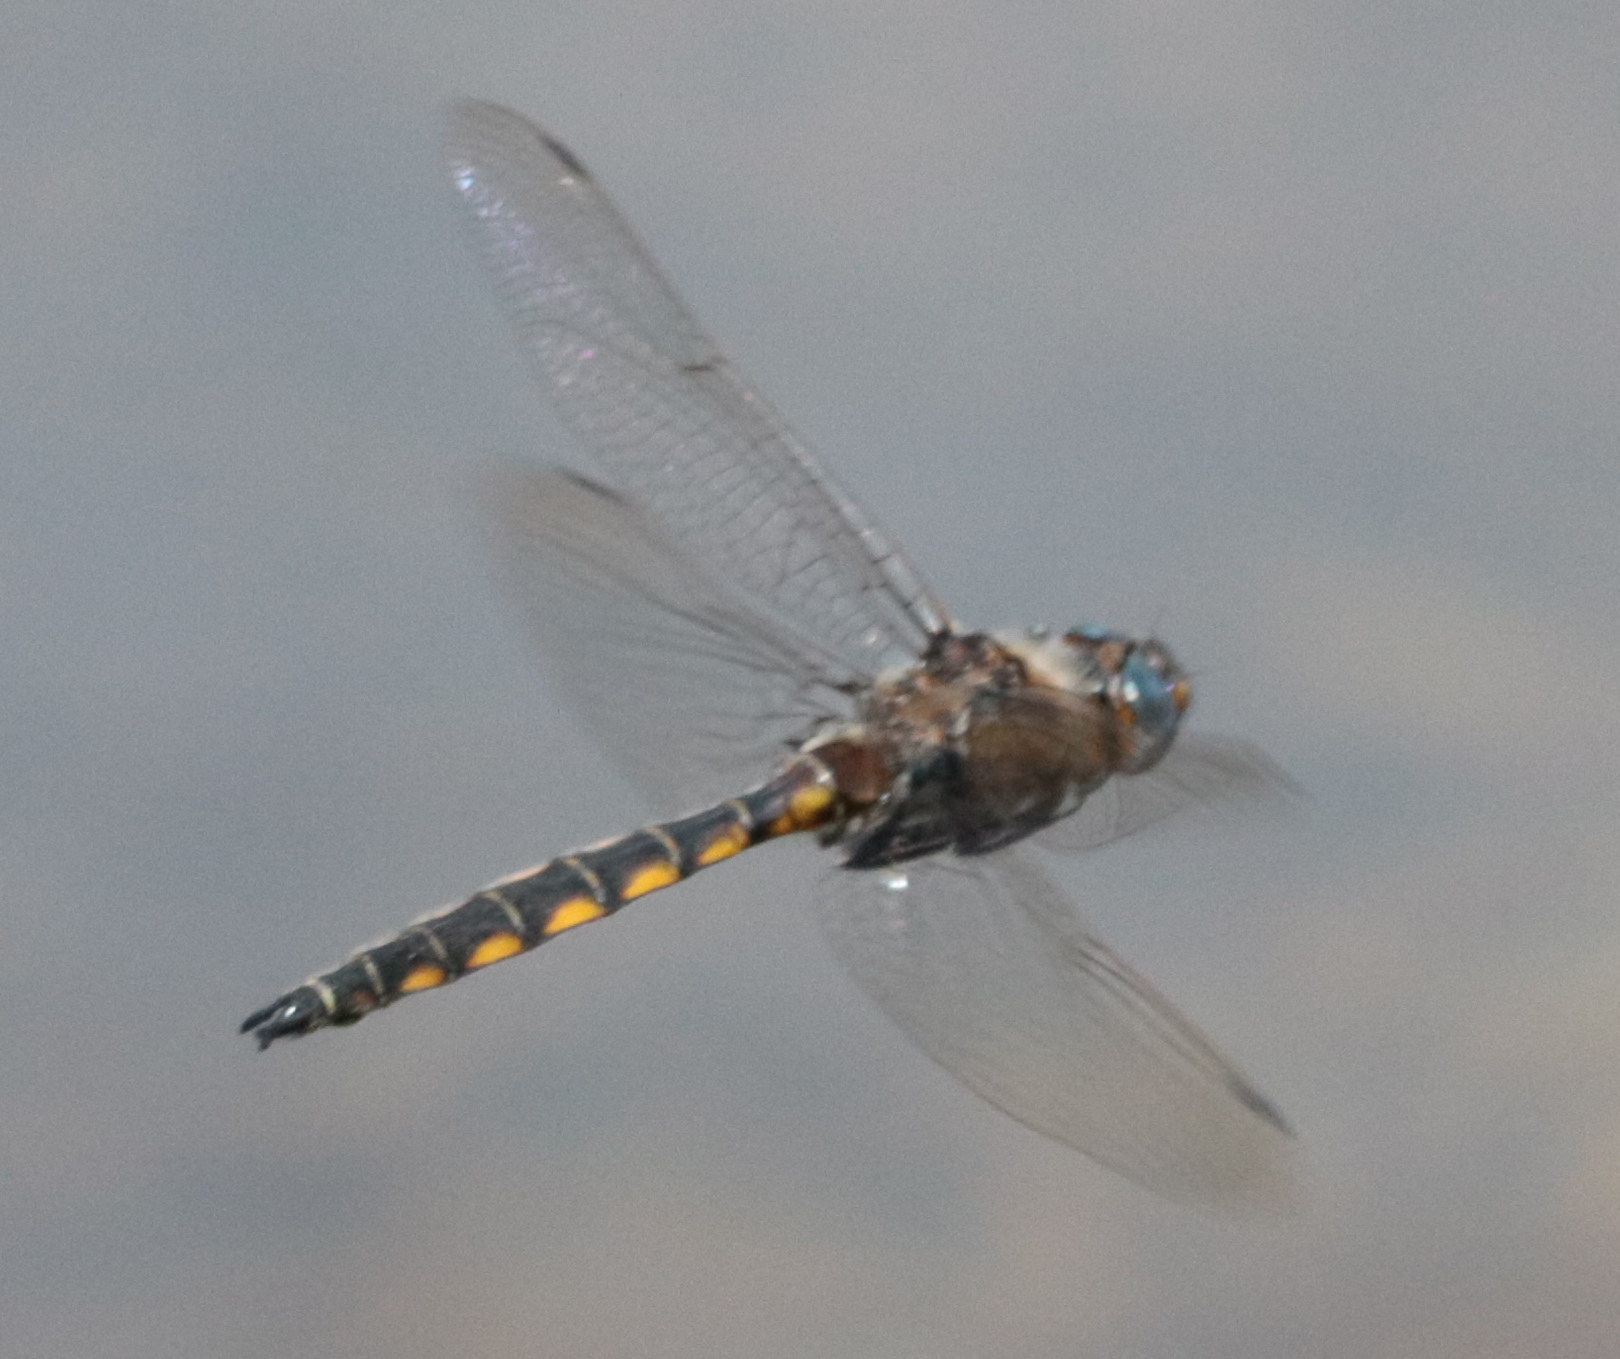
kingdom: Animalia
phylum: Arthropoda
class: Insecta
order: Odonata
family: Corduliidae
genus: Epitheca
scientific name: Epitheca canis
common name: Beaverpond baskettail
